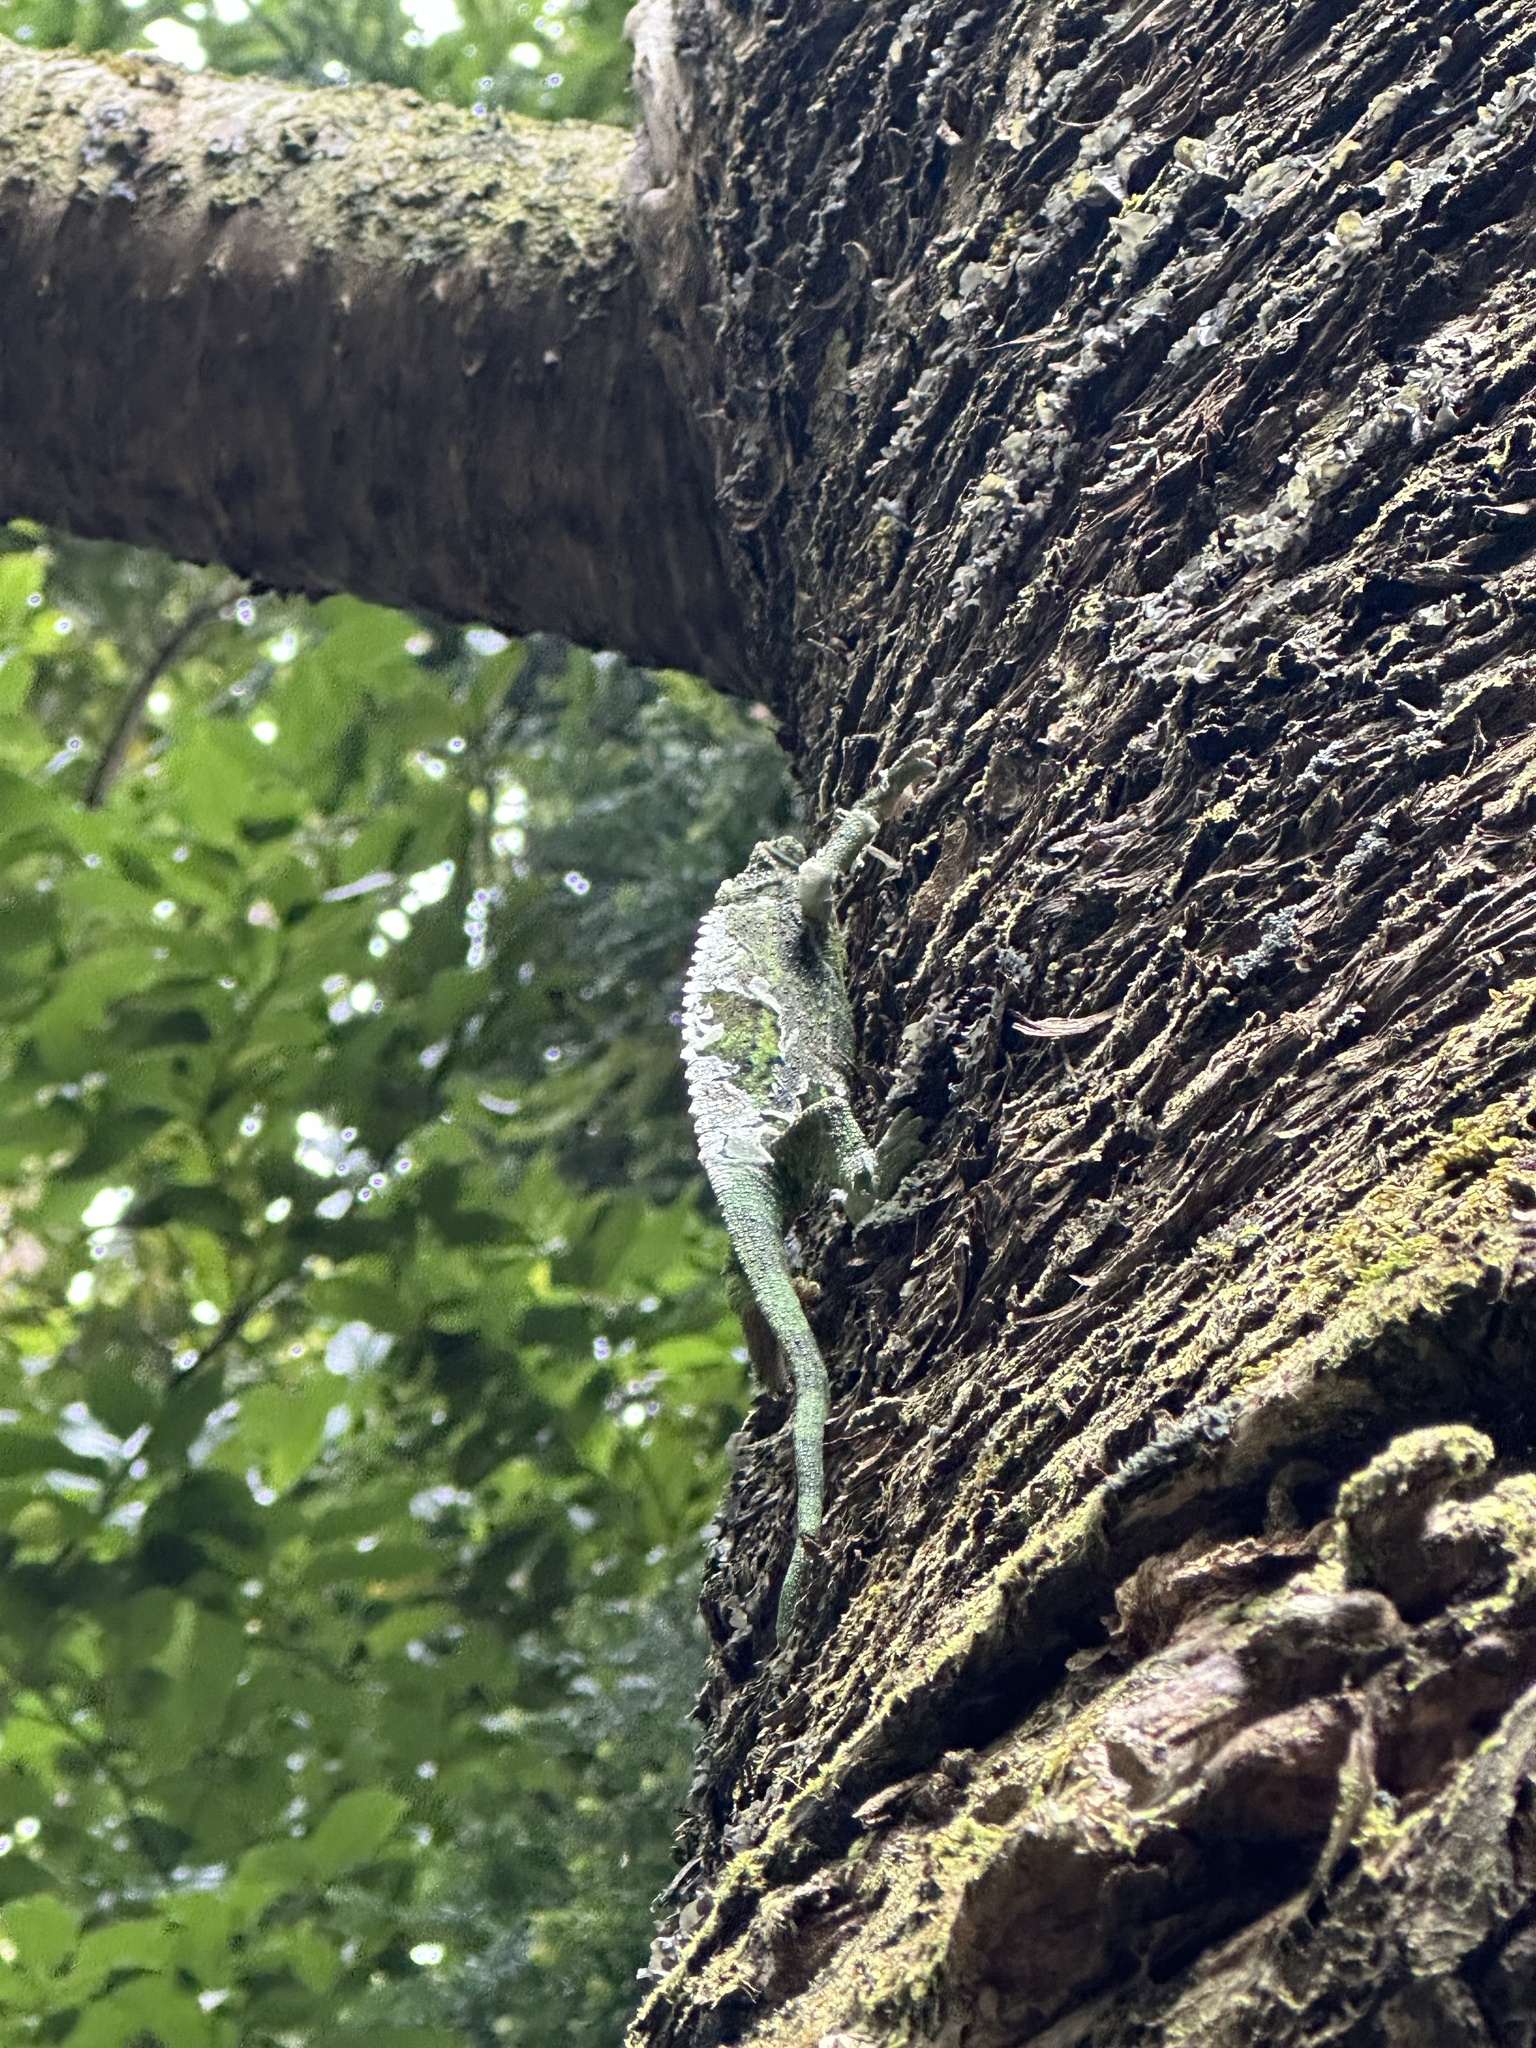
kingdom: Animalia
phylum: Chordata
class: Squamata
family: Chamaeleonidae
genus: Trioceros
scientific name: Trioceros jacksonii
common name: Jackson's chameleon
